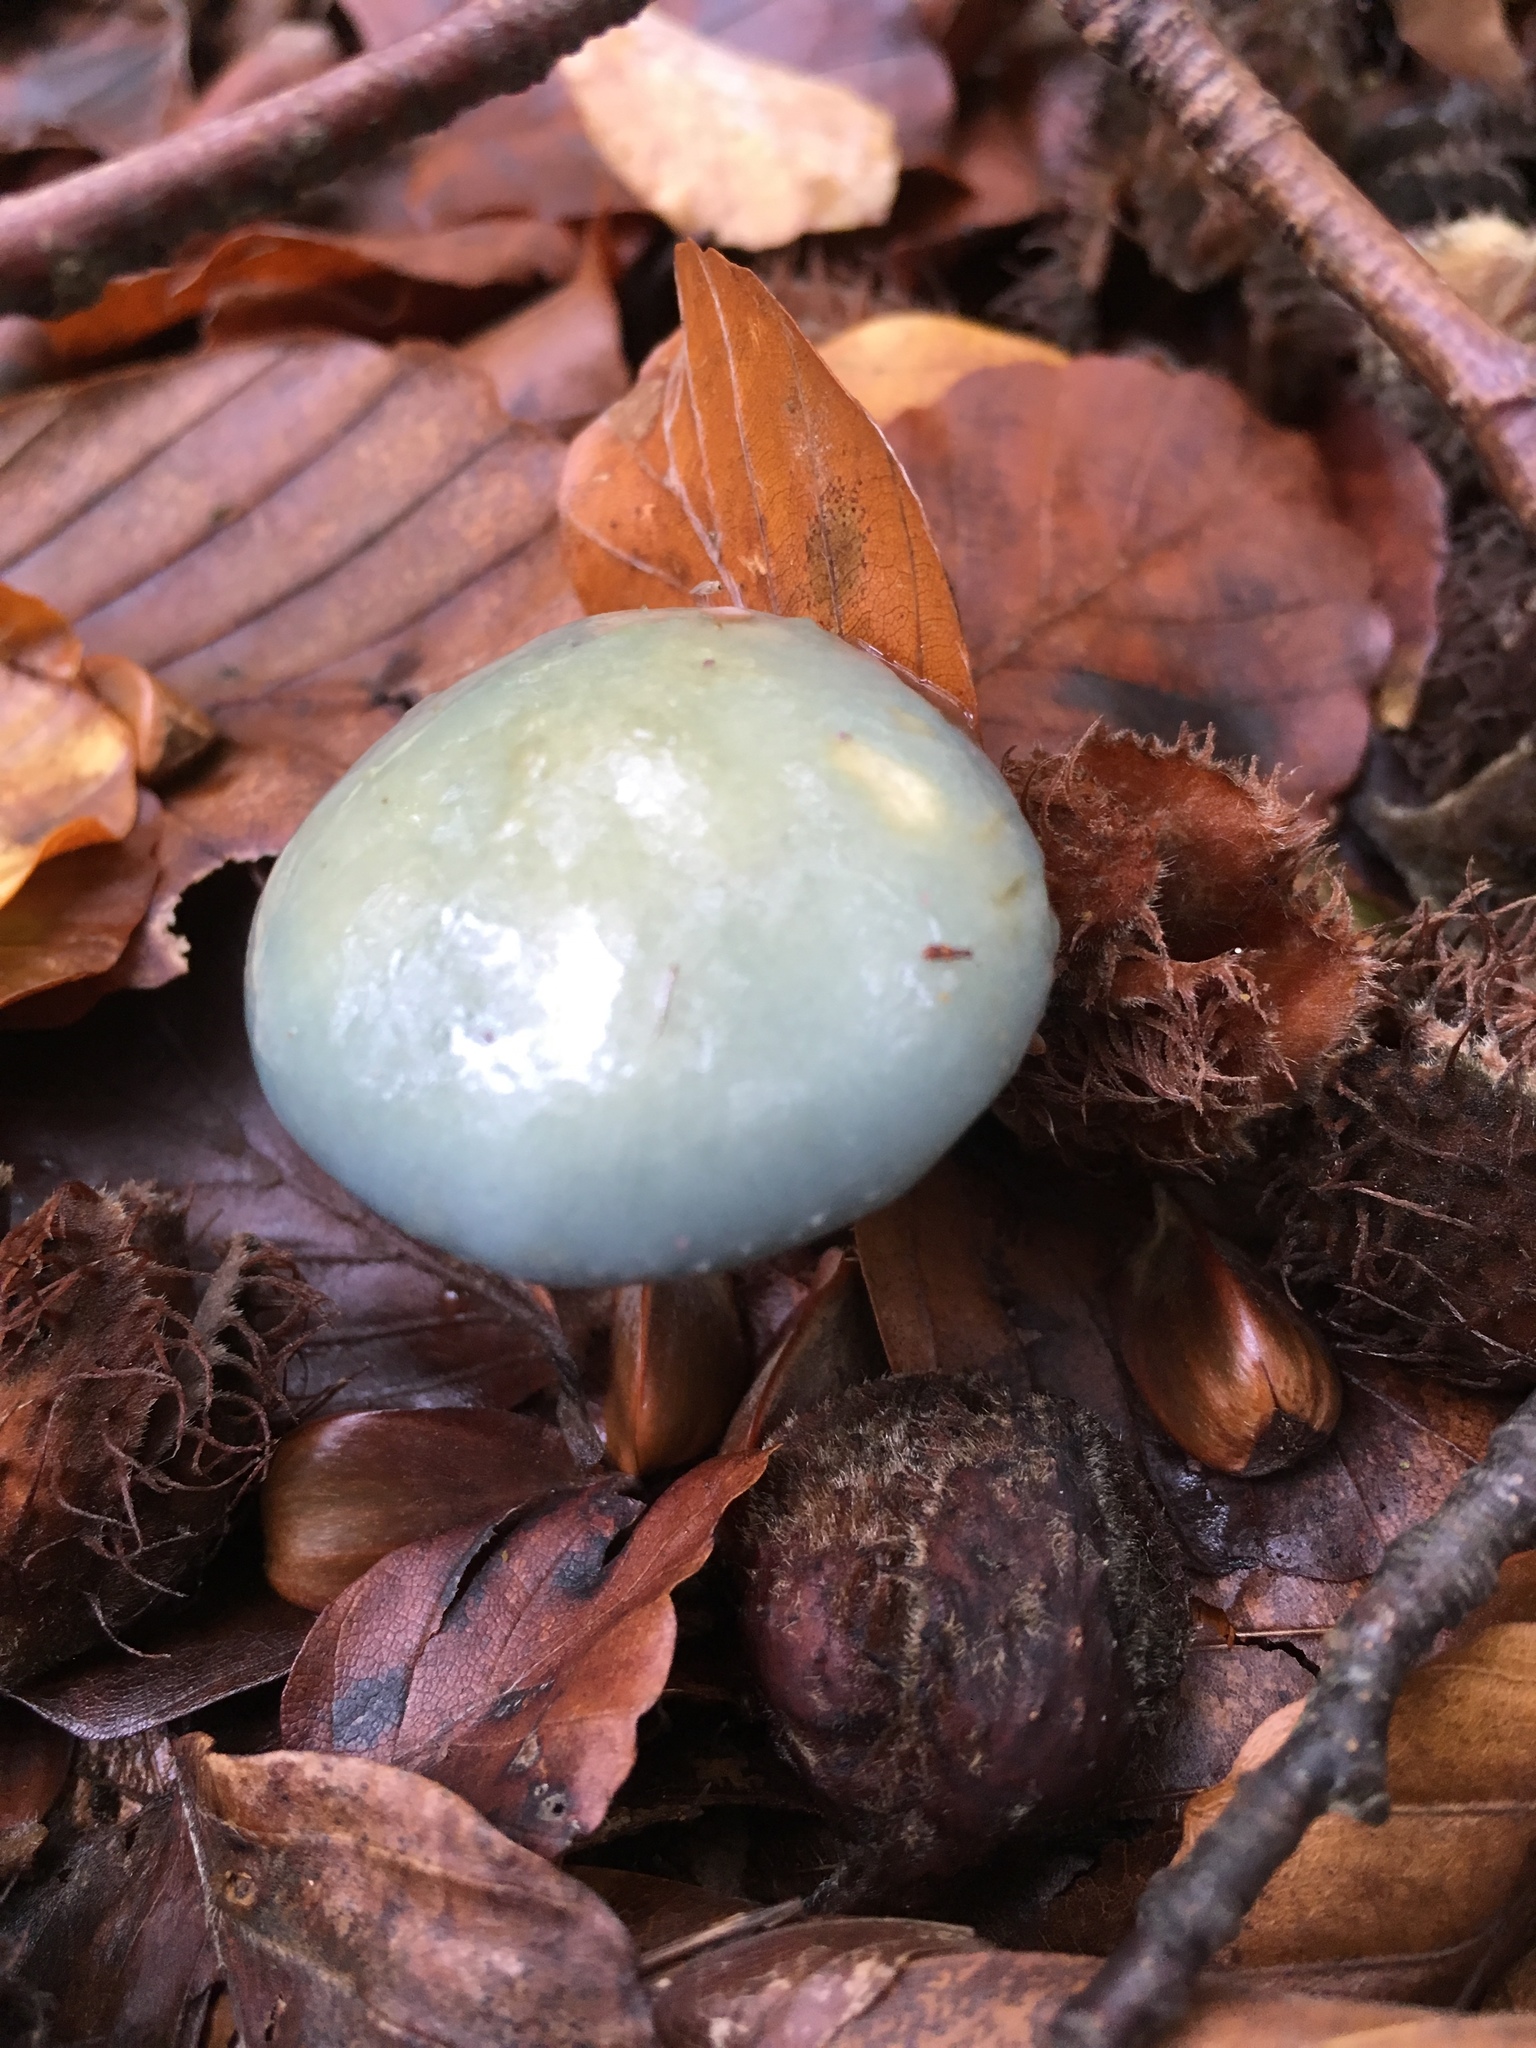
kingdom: Fungi
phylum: Basidiomycota
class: Agaricomycetes
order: Agaricales
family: Strophariaceae
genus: Stropharia
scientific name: Stropharia aeruginosa
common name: Verdigris roundhead
